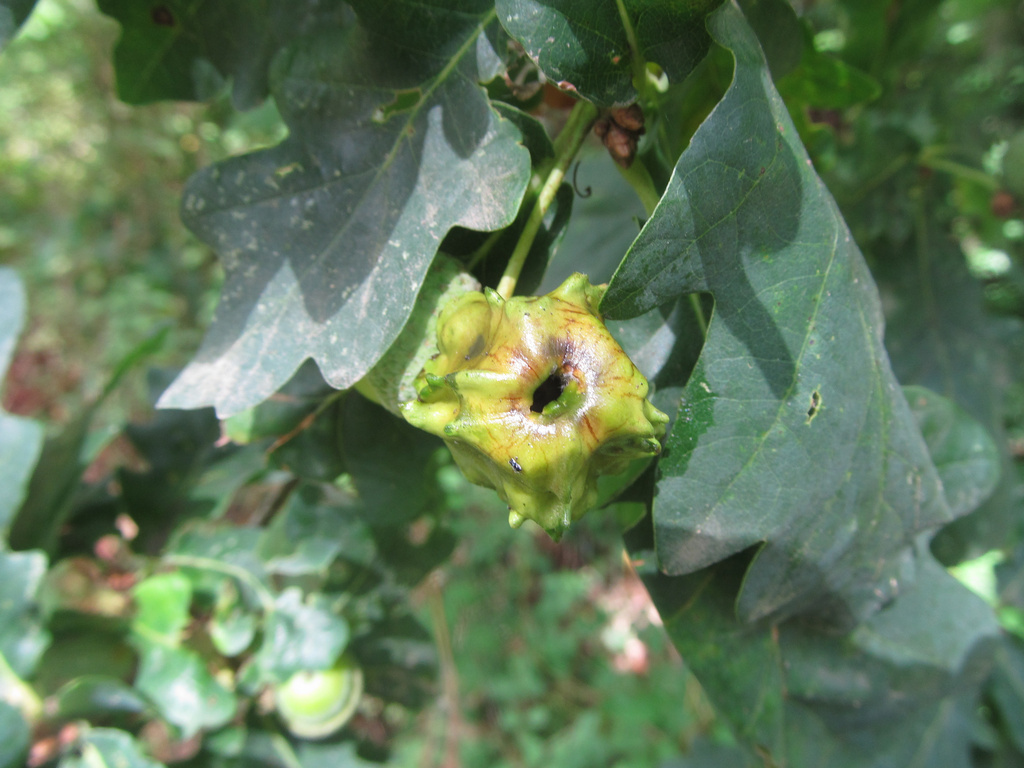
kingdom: Animalia
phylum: Arthropoda
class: Insecta
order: Hymenoptera
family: Cynipidae
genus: Andricus
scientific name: Andricus quercuscalicis
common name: Knopper gall
